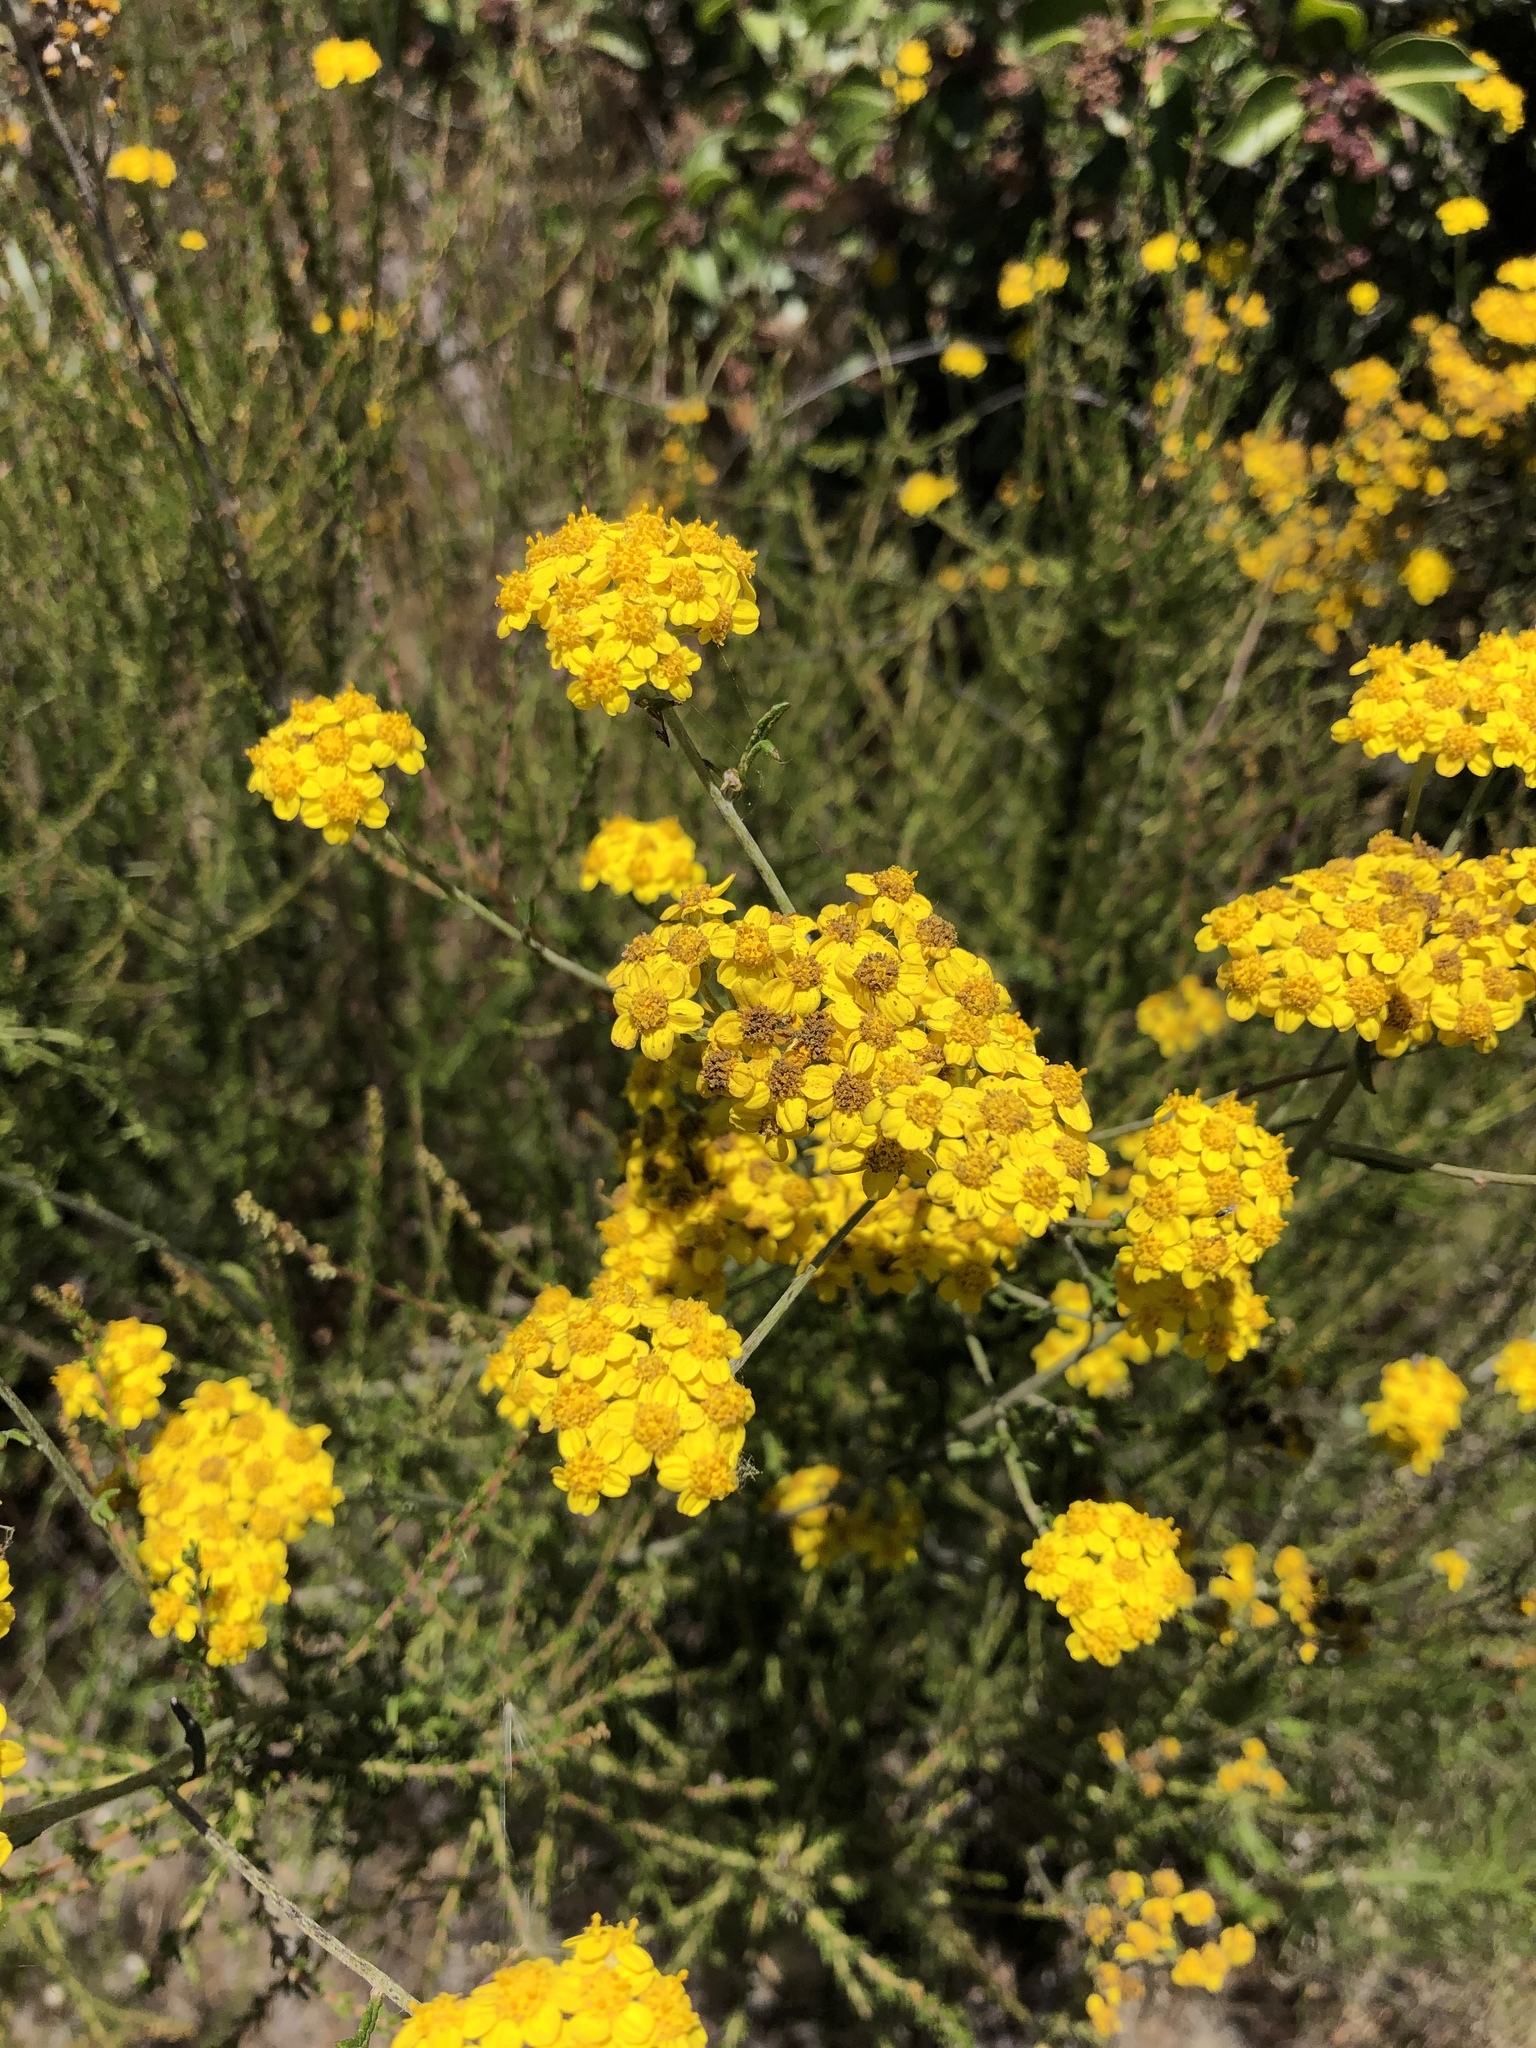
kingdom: Plantae
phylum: Tracheophyta
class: Magnoliopsida
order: Asterales
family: Asteraceae
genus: Eriophyllum
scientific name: Eriophyllum confertiflorum
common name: Golden-yarrow
